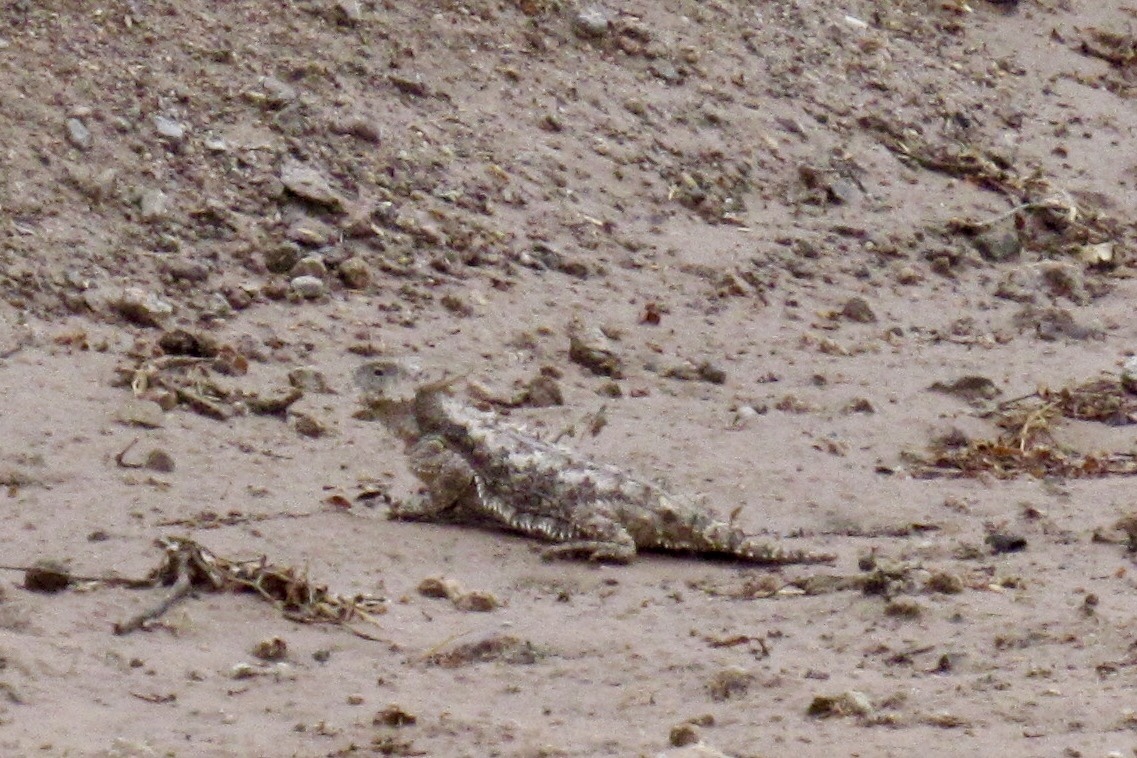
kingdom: Animalia
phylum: Chordata
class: Squamata
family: Phrynosomatidae
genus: Phrynosoma
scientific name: Phrynosoma solare
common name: Regal horned lizard
